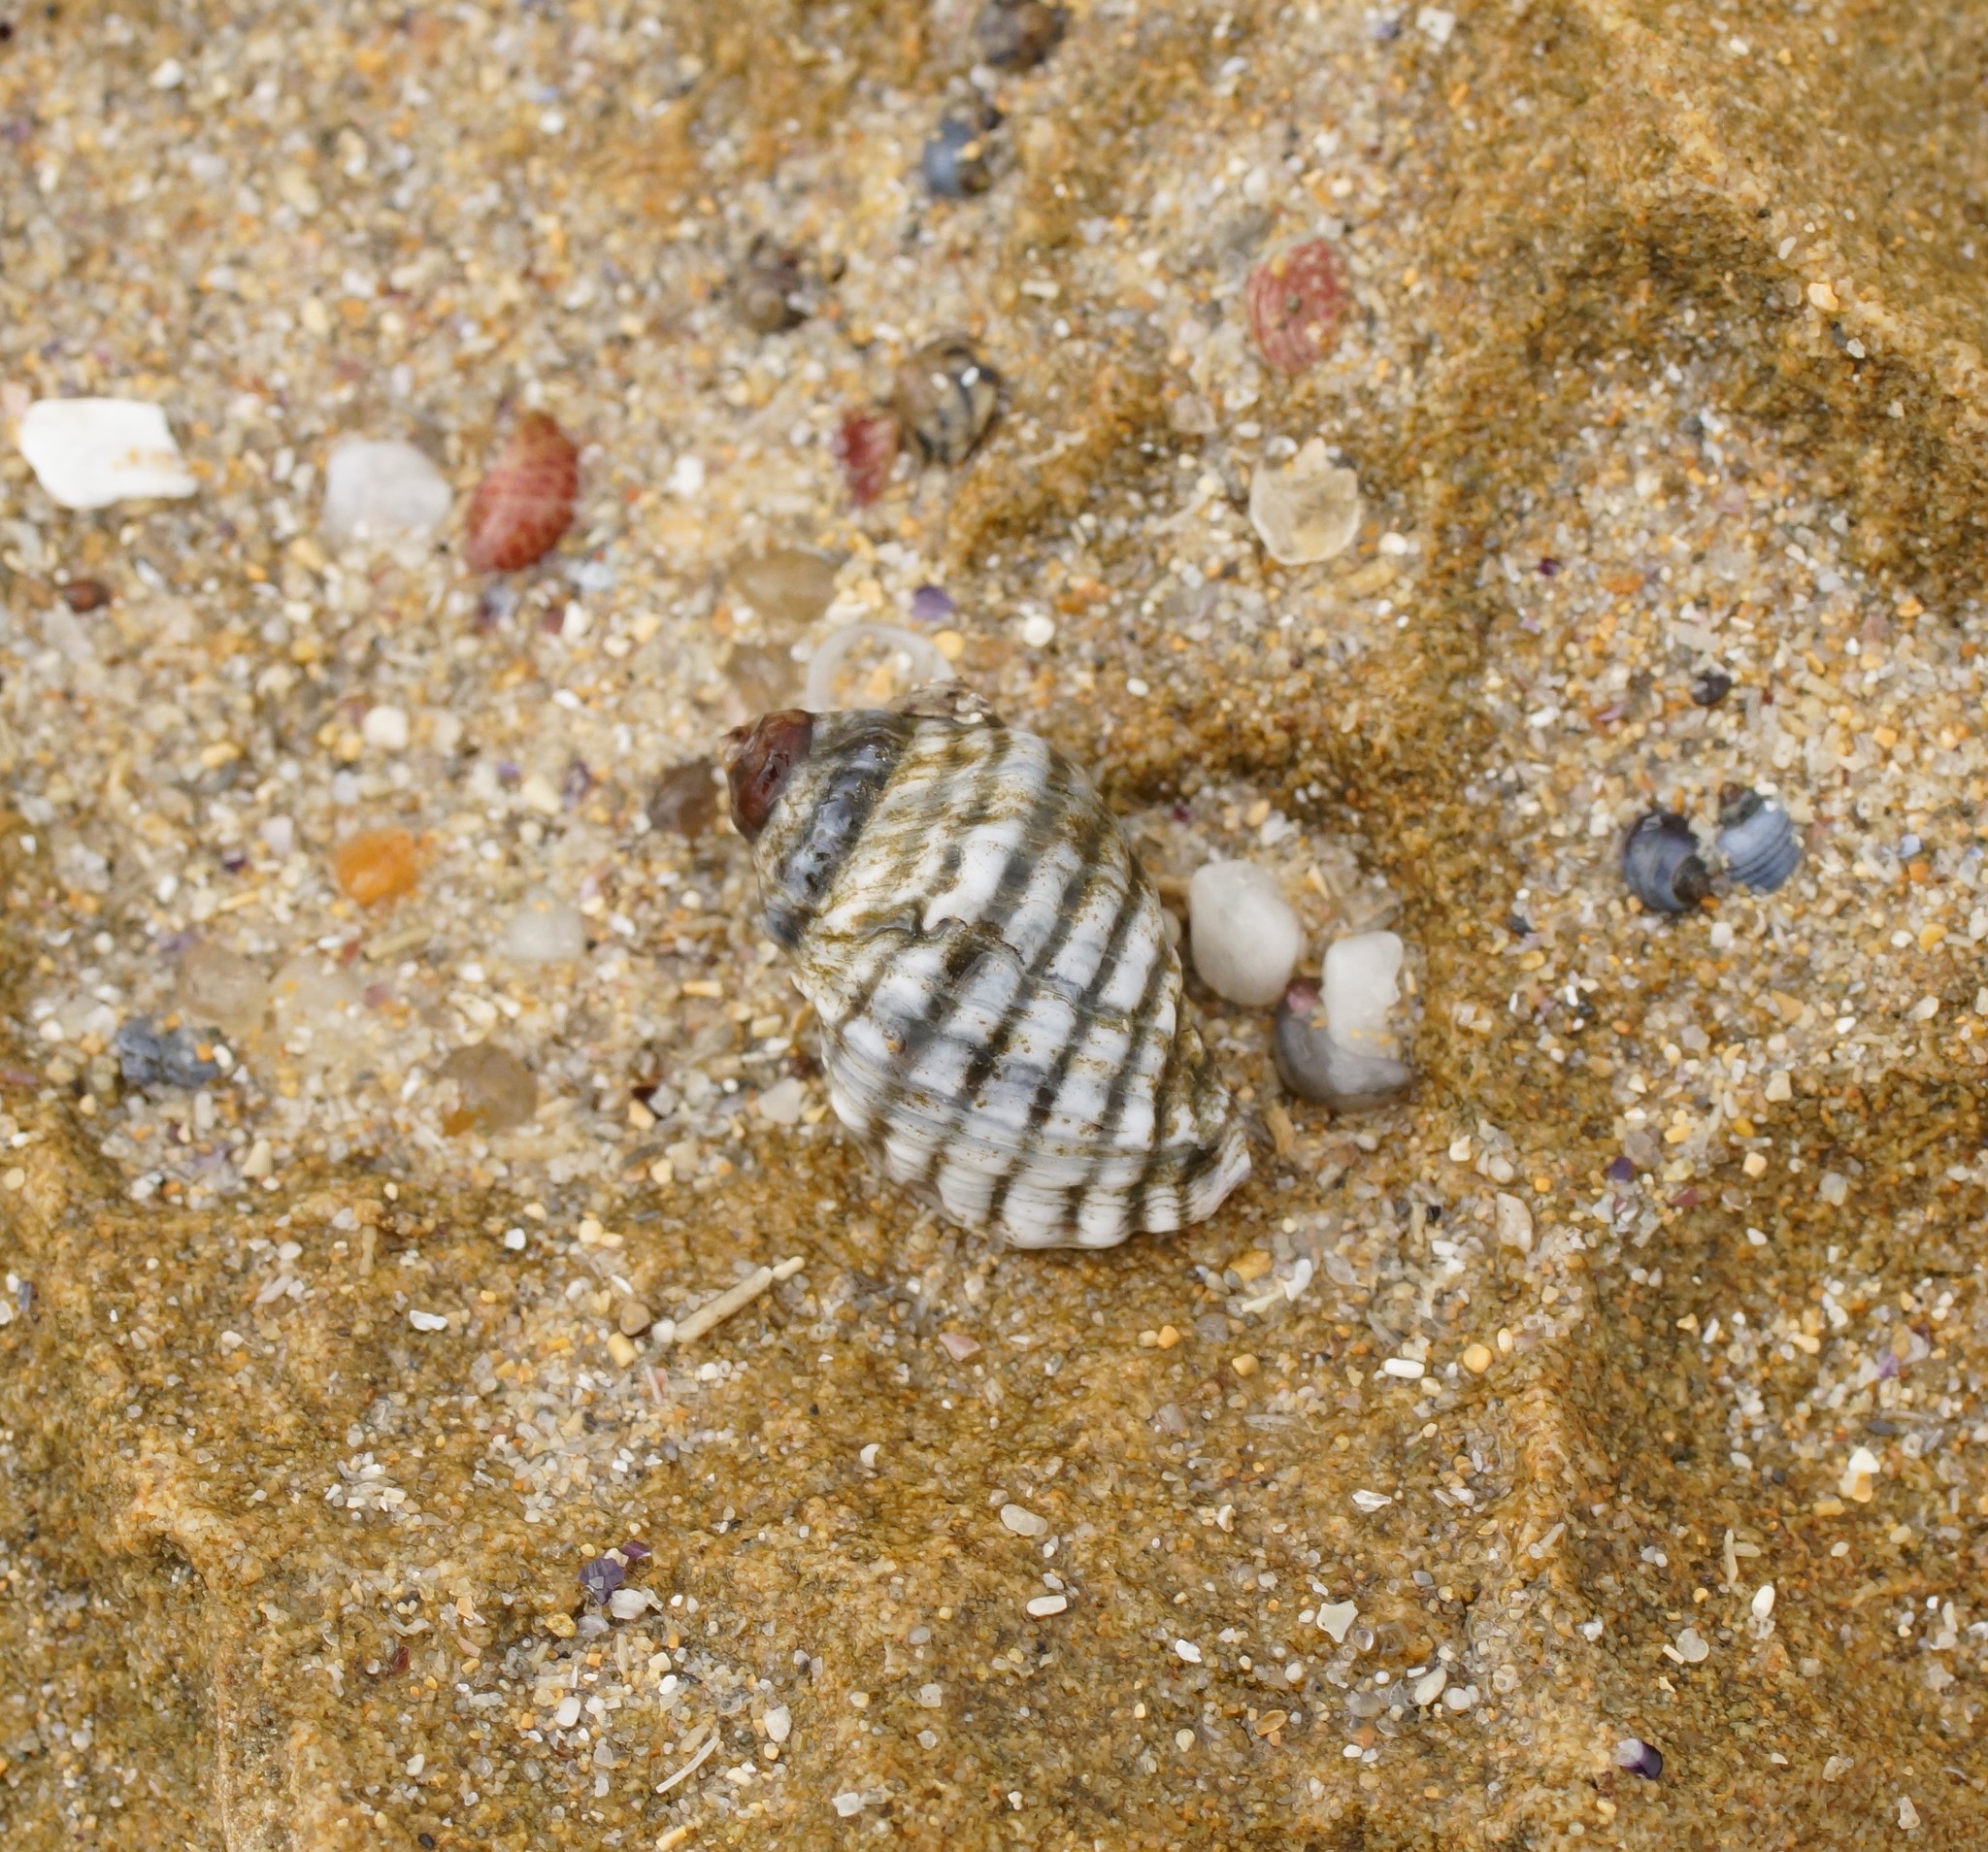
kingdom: Animalia
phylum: Mollusca
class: Gastropoda
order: Neogastropoda
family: Muricidae
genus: Bedeva
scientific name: Bedeva vinosa
